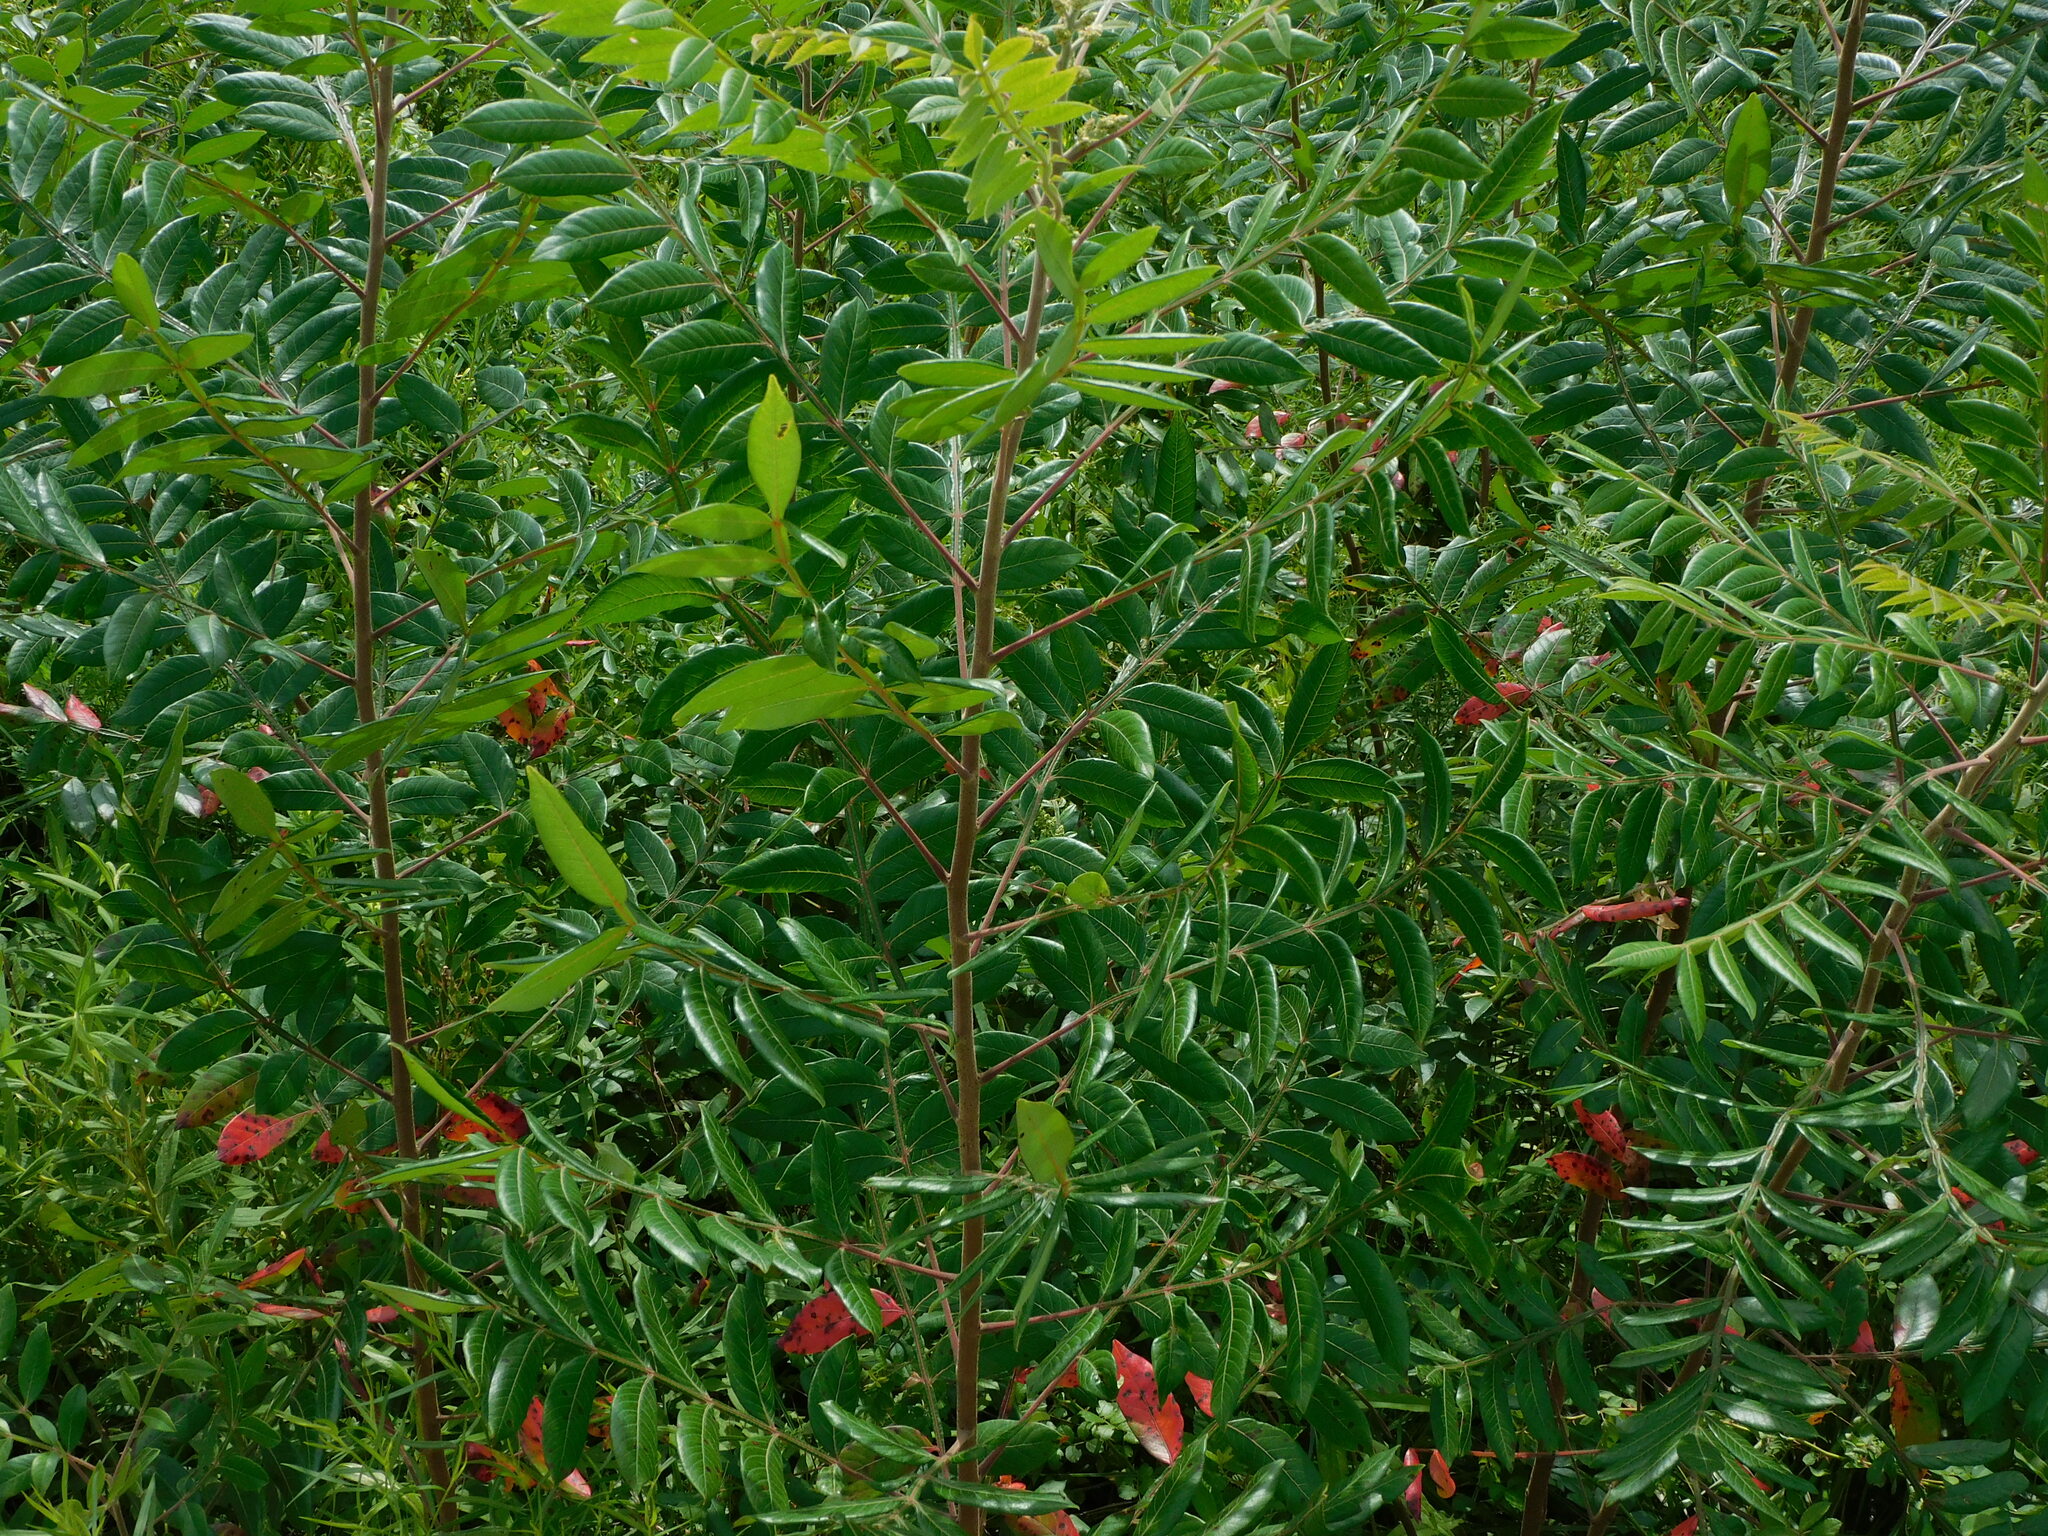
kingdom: Plantae
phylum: Tracheophyta
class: Magnoliopsida
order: Sapindales
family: Anacardiaceae
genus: Rhus
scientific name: Rhus copallina
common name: Shining sumac
